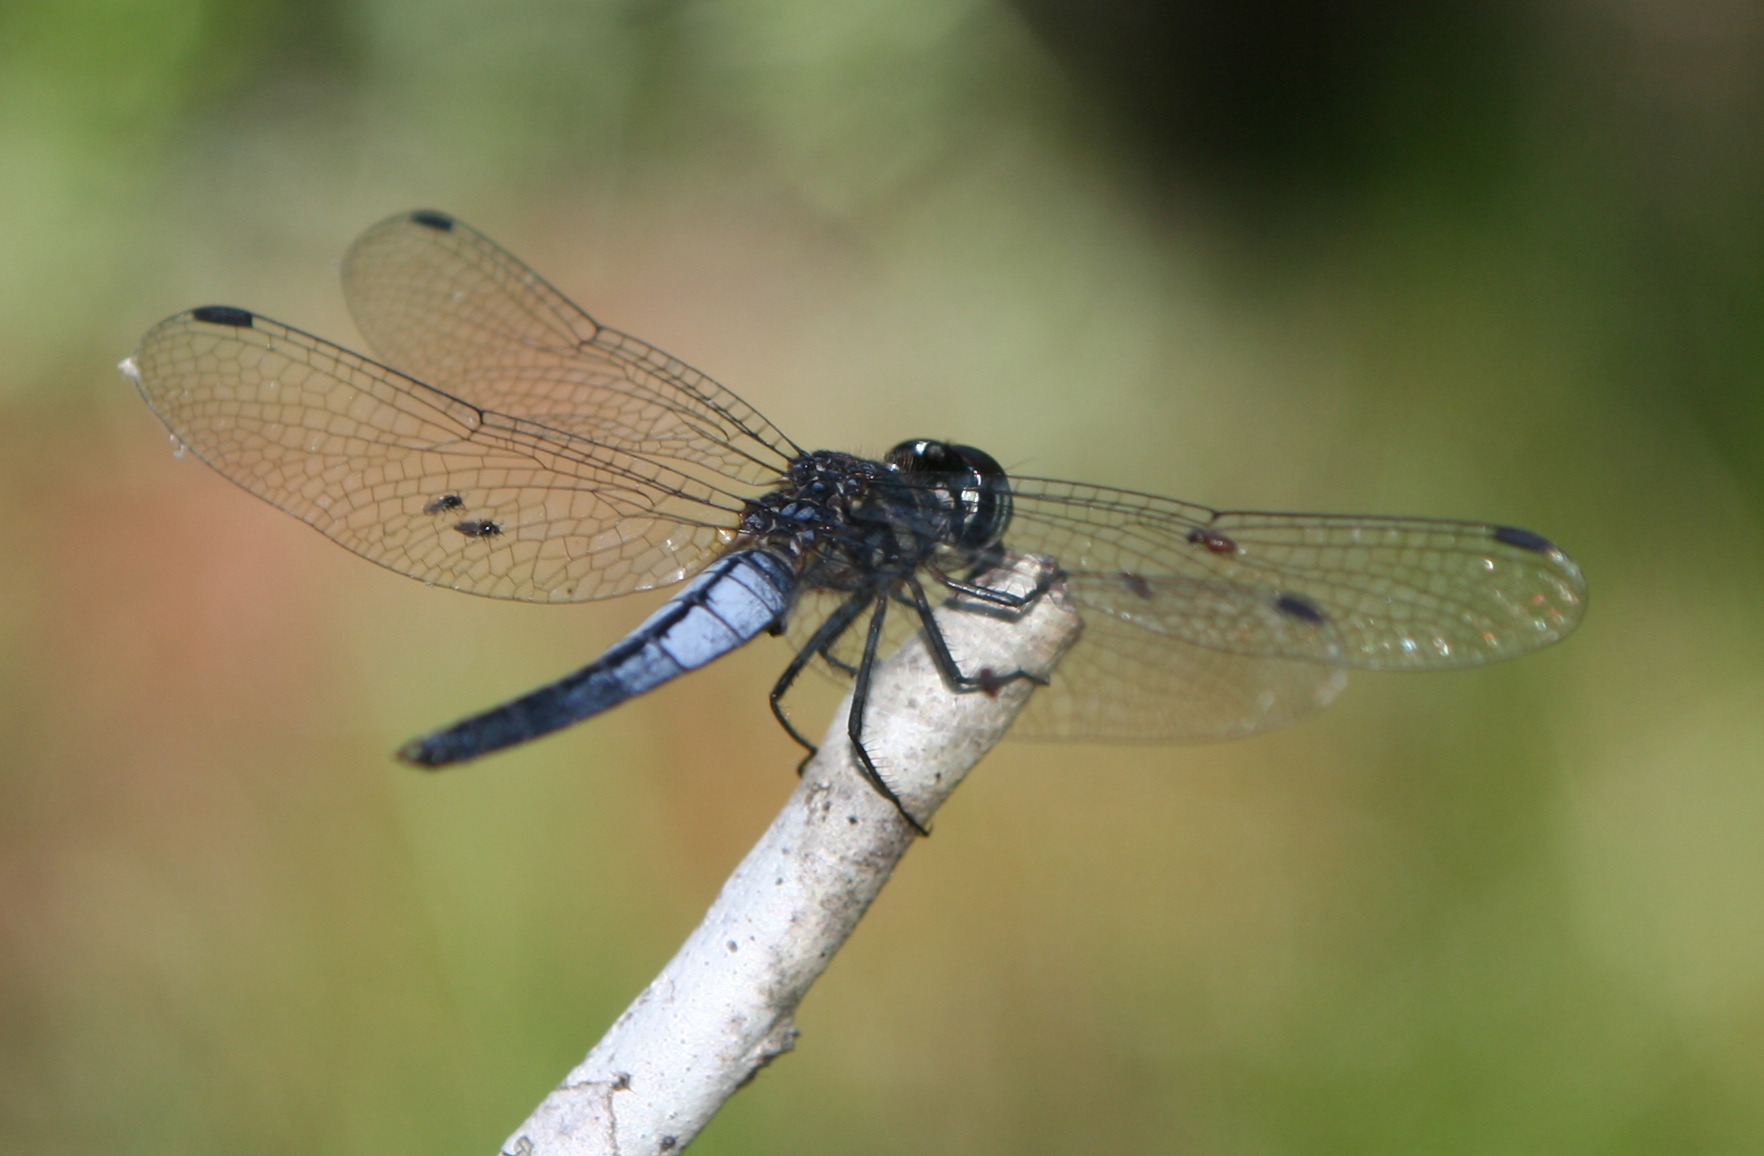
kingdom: Animalia
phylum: Arthropoda
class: Insecta
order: Odonata
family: Libellulidae
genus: Lyriothemis
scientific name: Lyriothemis mortoni
